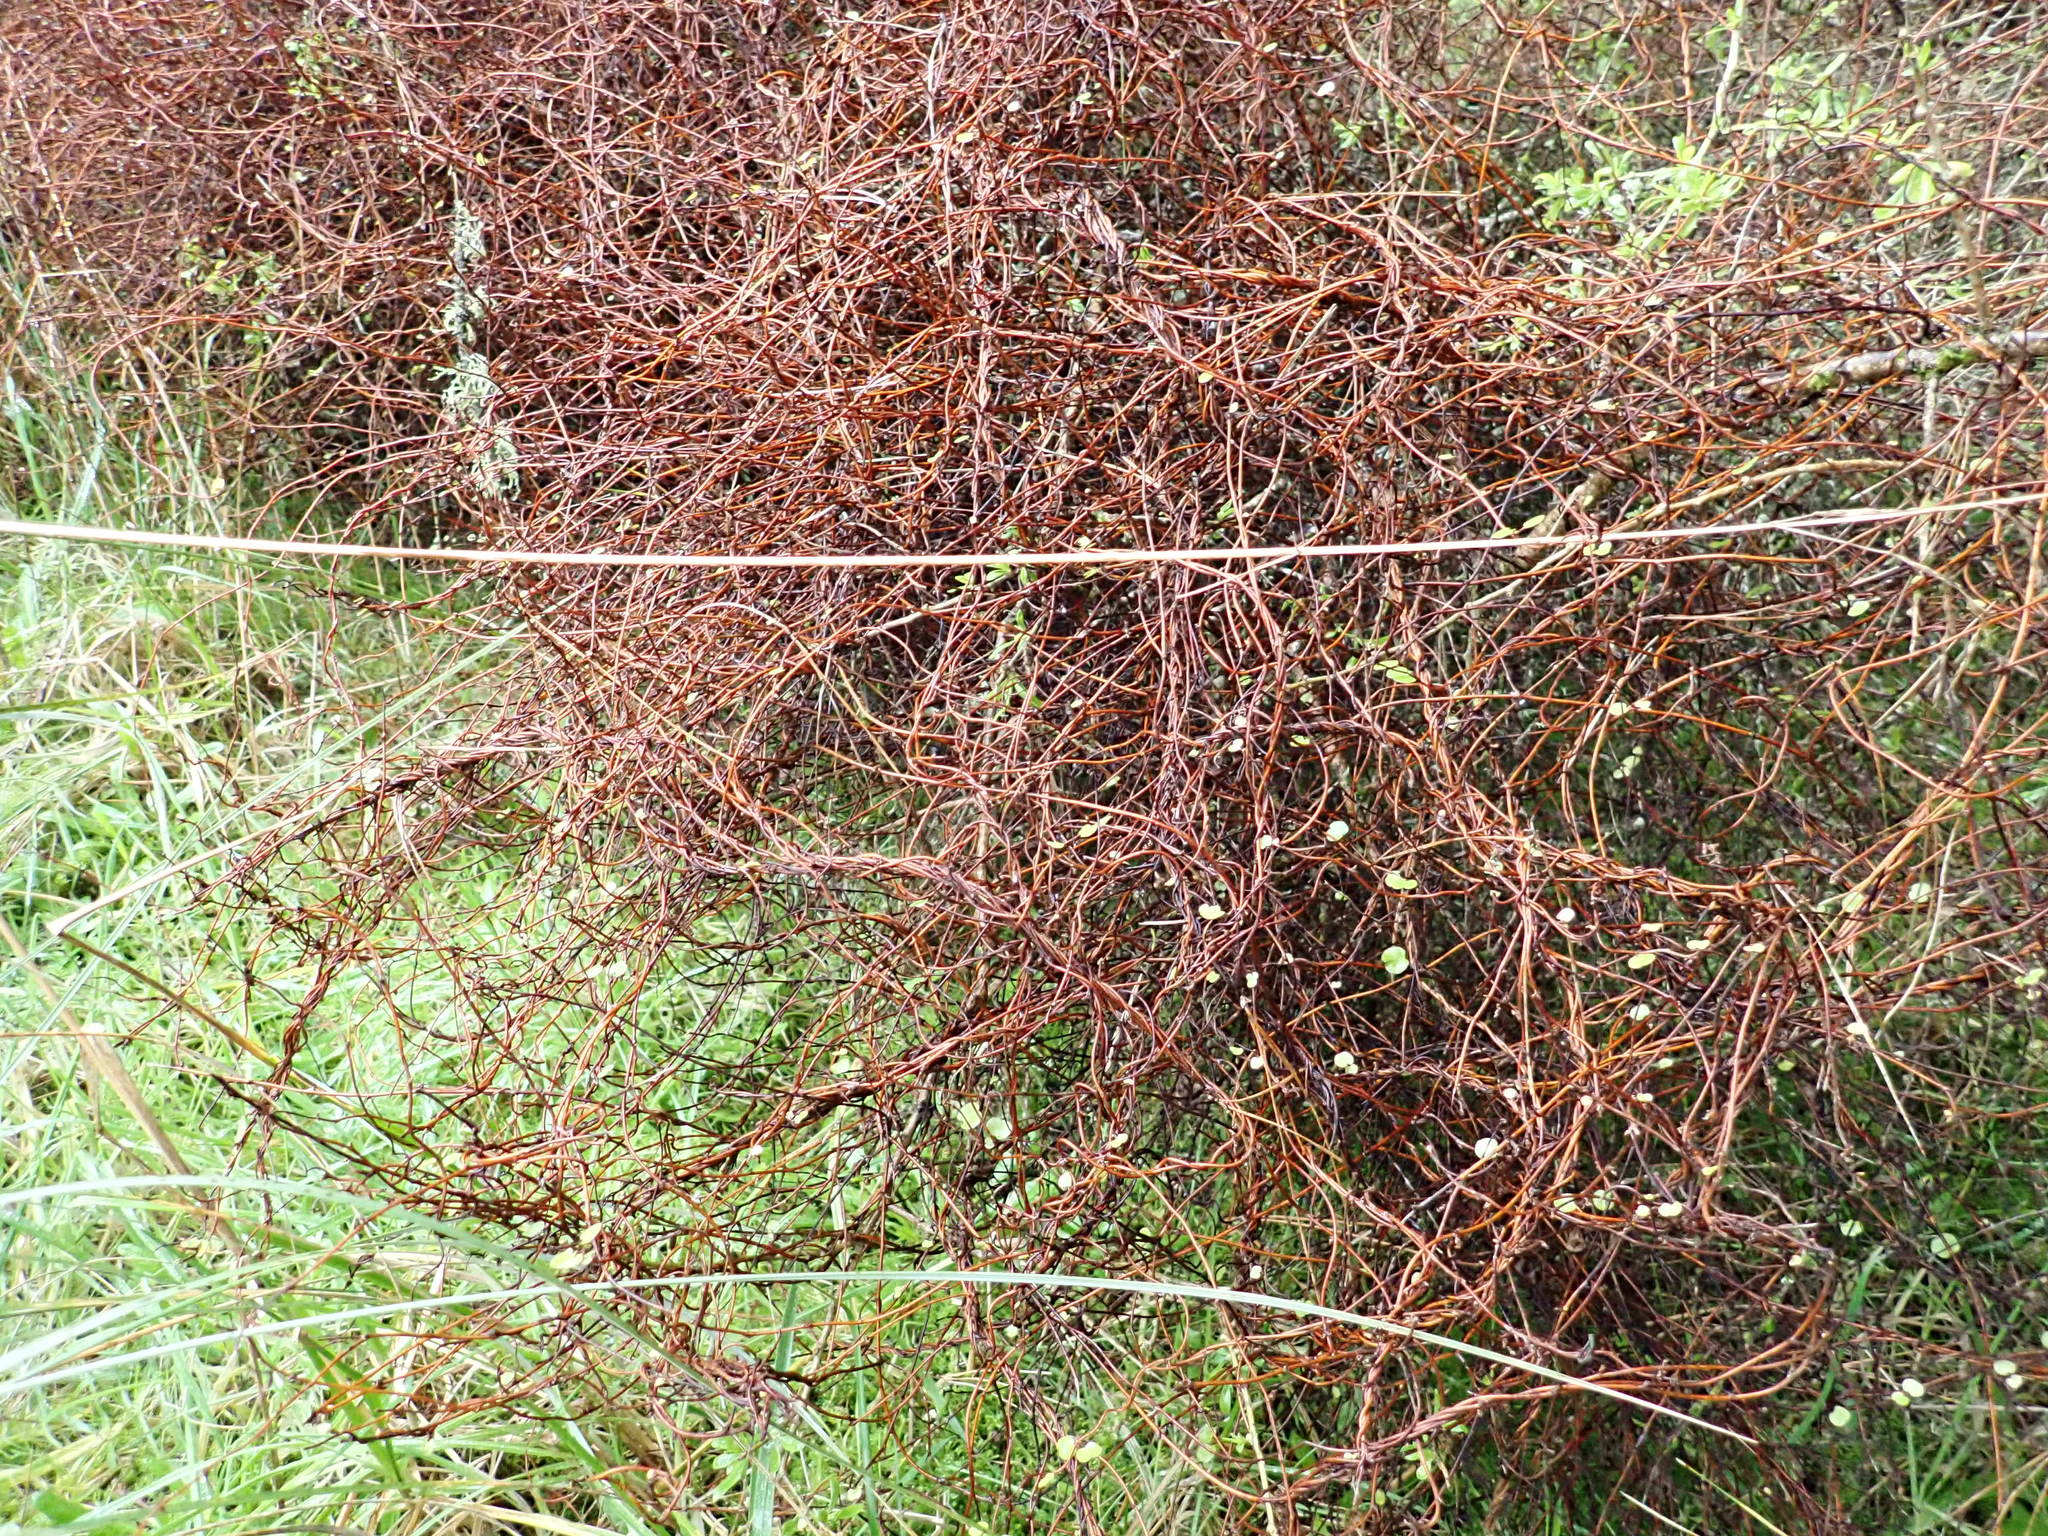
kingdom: Plantae
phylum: Tracheophyta
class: Magnoliopsida
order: Caryophyllales
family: Polygonaceae
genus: Muehlenbeckia
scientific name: Muehlenbeckia complexa
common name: Wireplant
